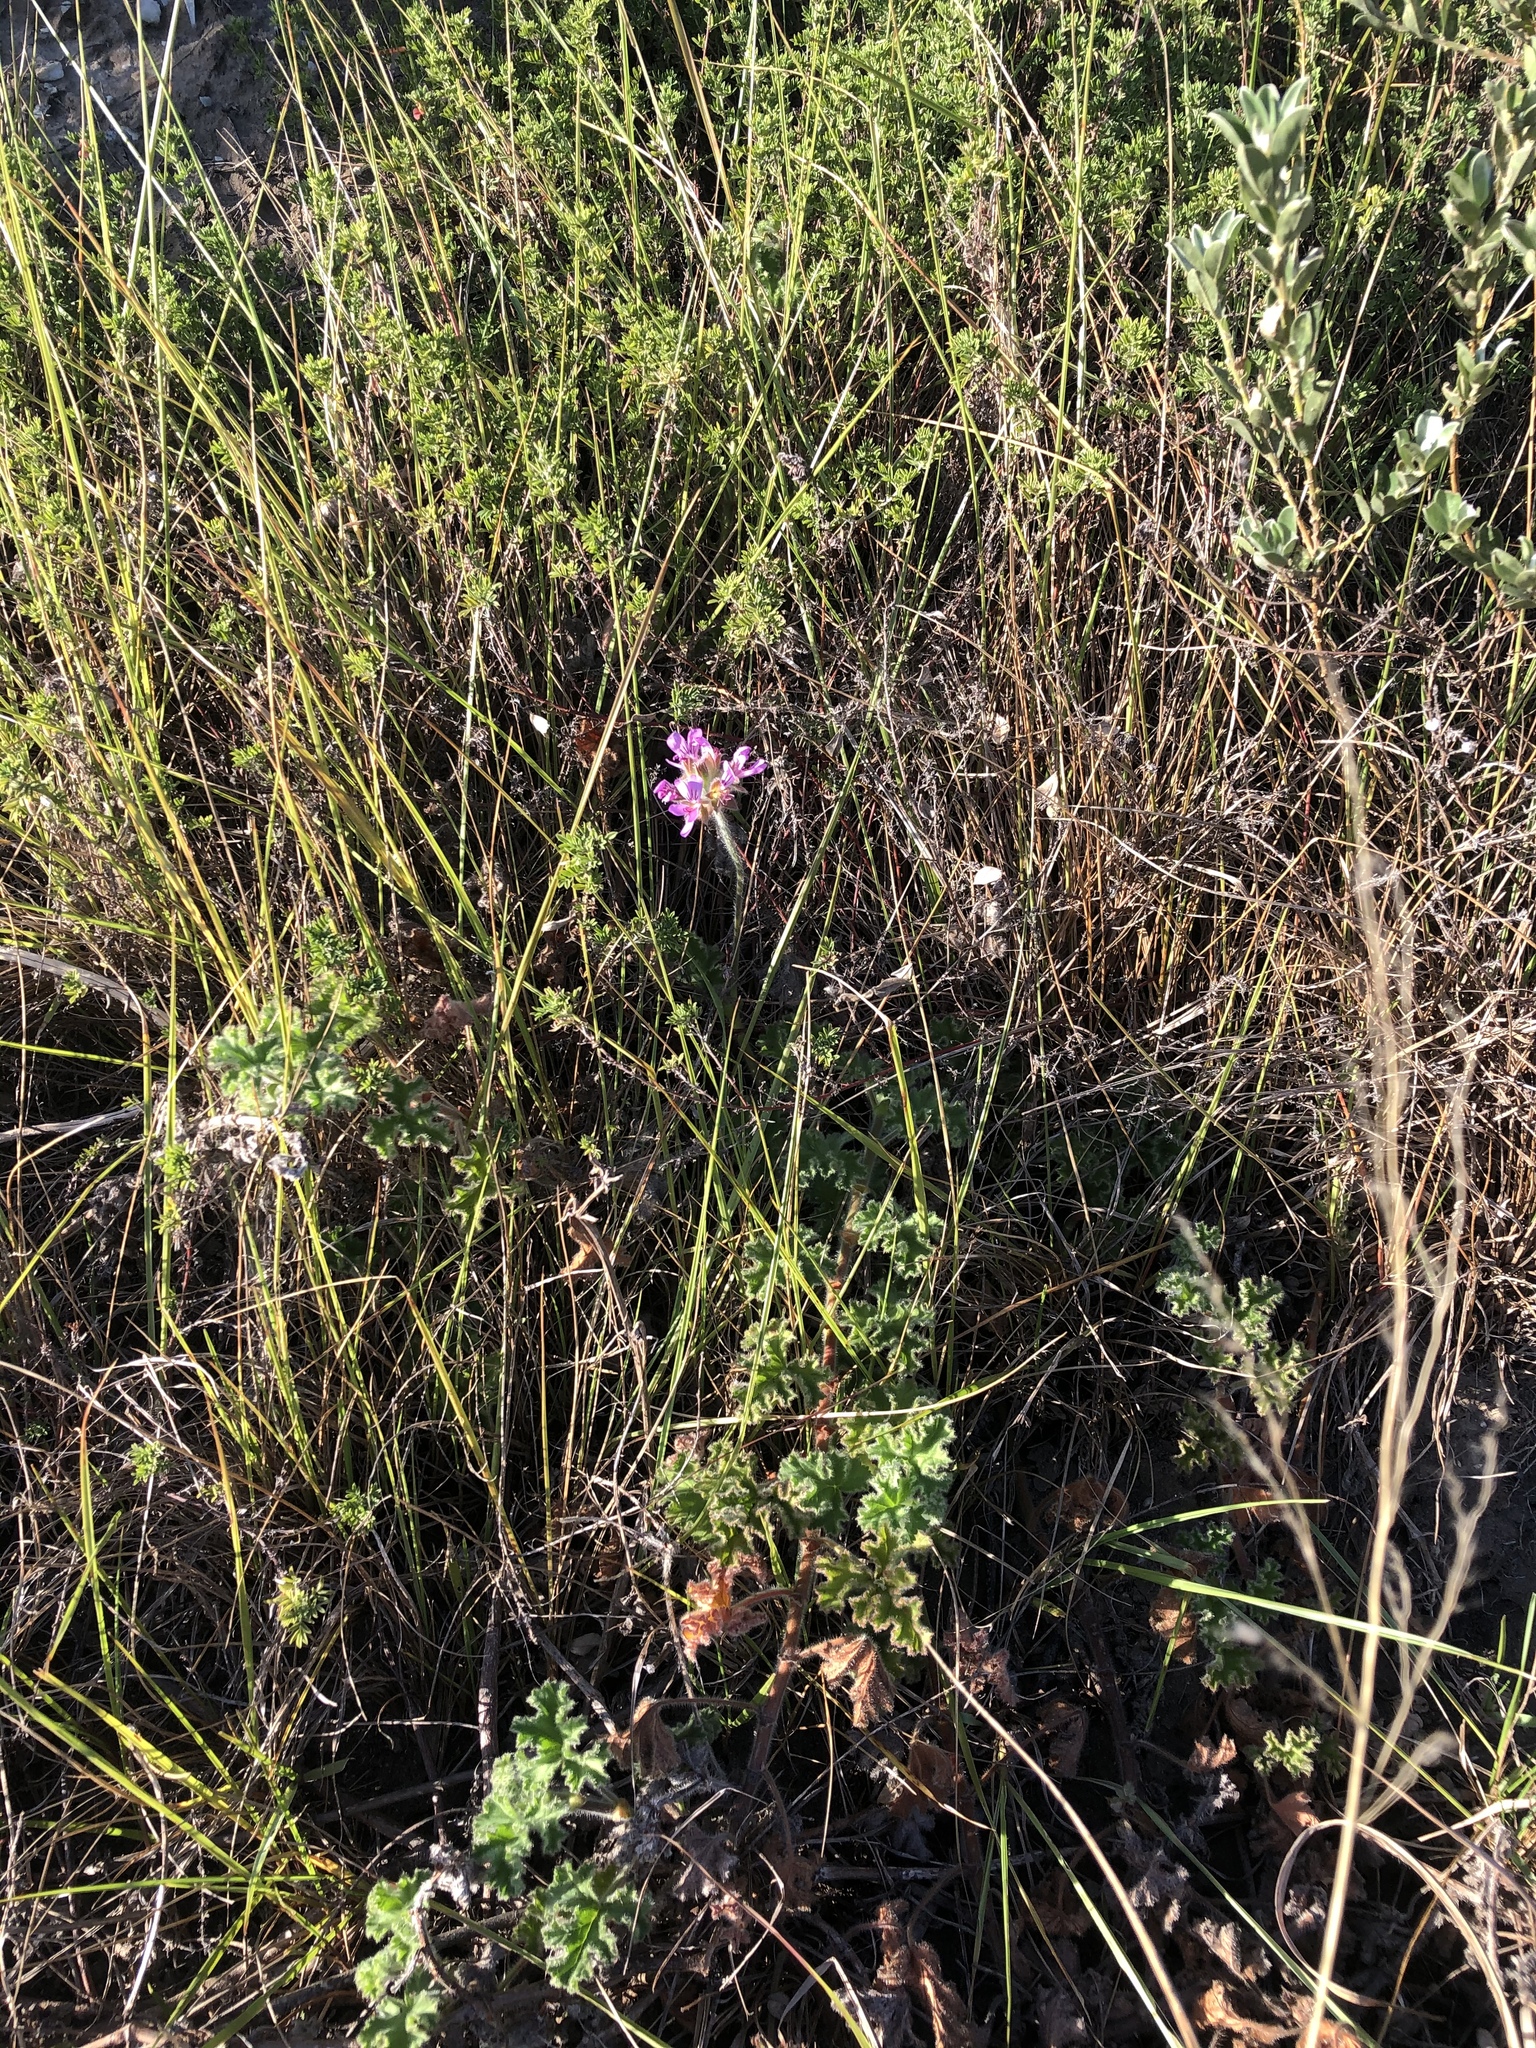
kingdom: Plantae
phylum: Tracheophyta
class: Magnoliopsida
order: Geraniales
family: Geraniaceae
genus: Pelargonium
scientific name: Pelargonium capitatum
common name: Rose scented geranium
